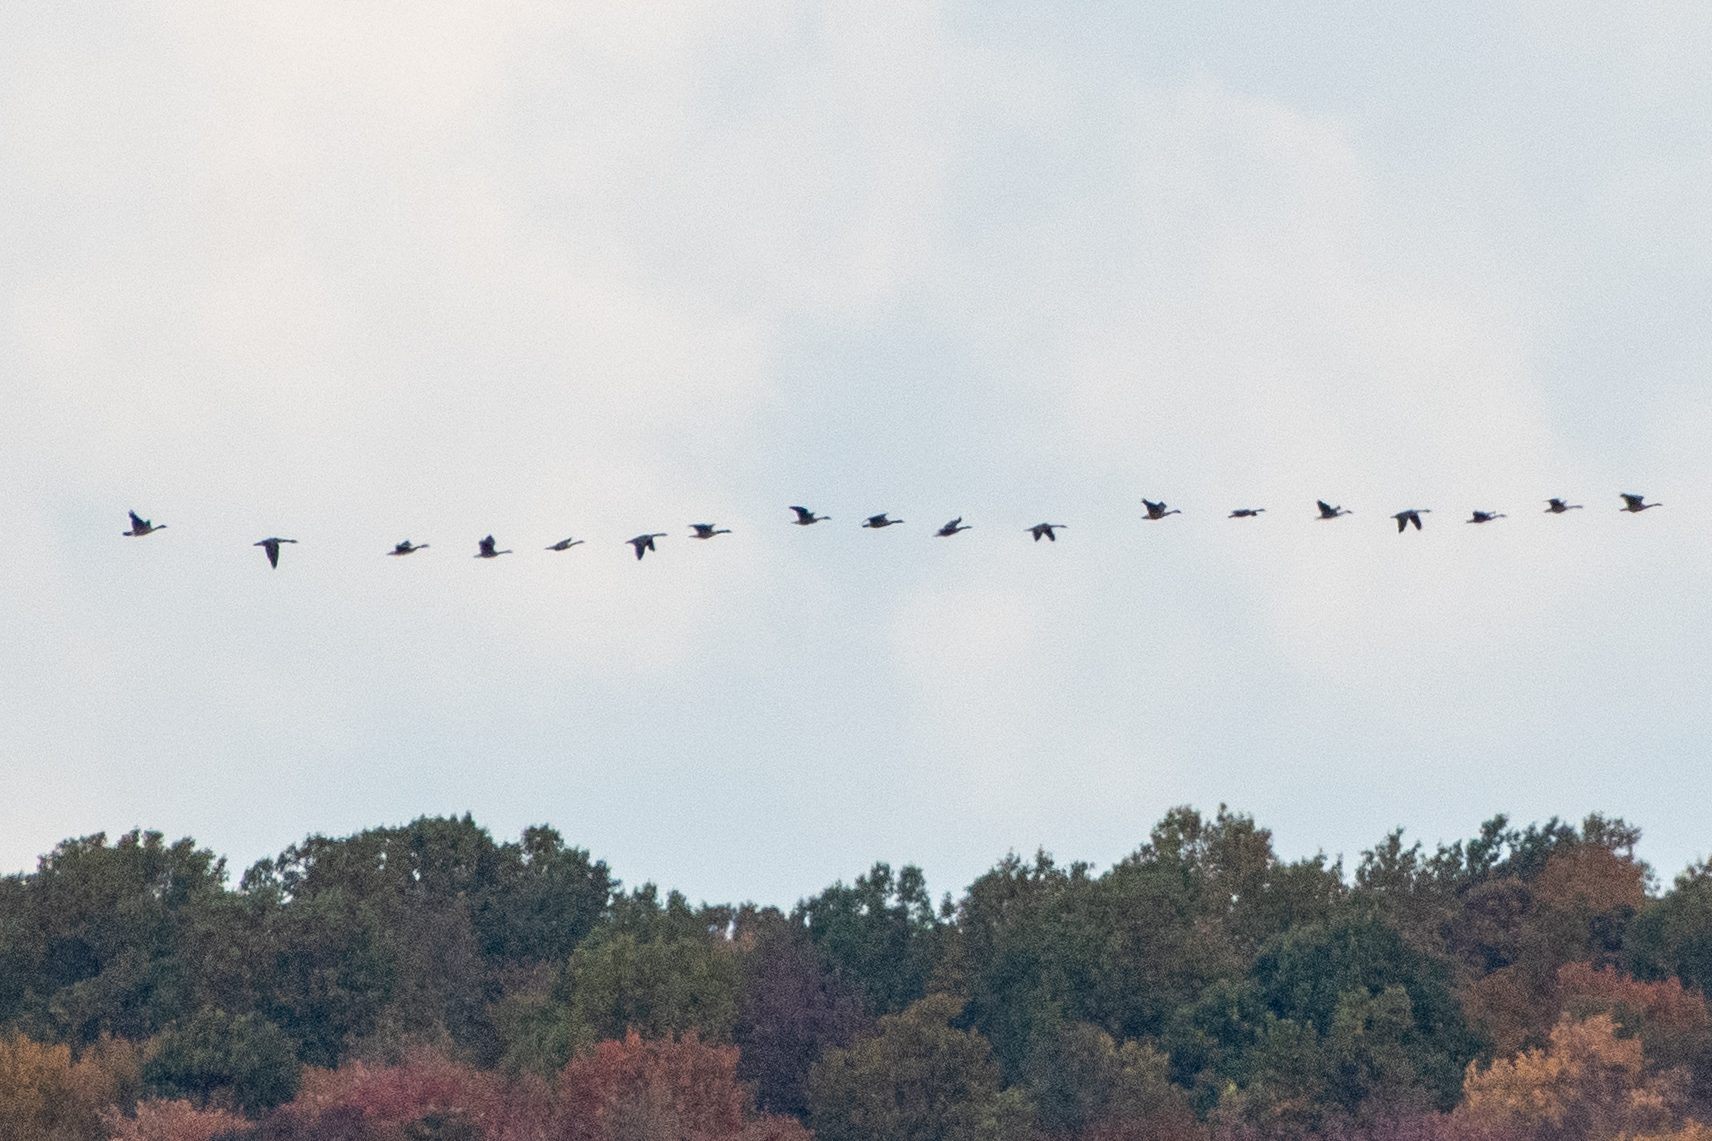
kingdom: Animalia
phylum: Chordata
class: Aves
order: Anseriformes
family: Anatidae
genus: Branta
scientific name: Branta canadensis
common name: Canada goose
